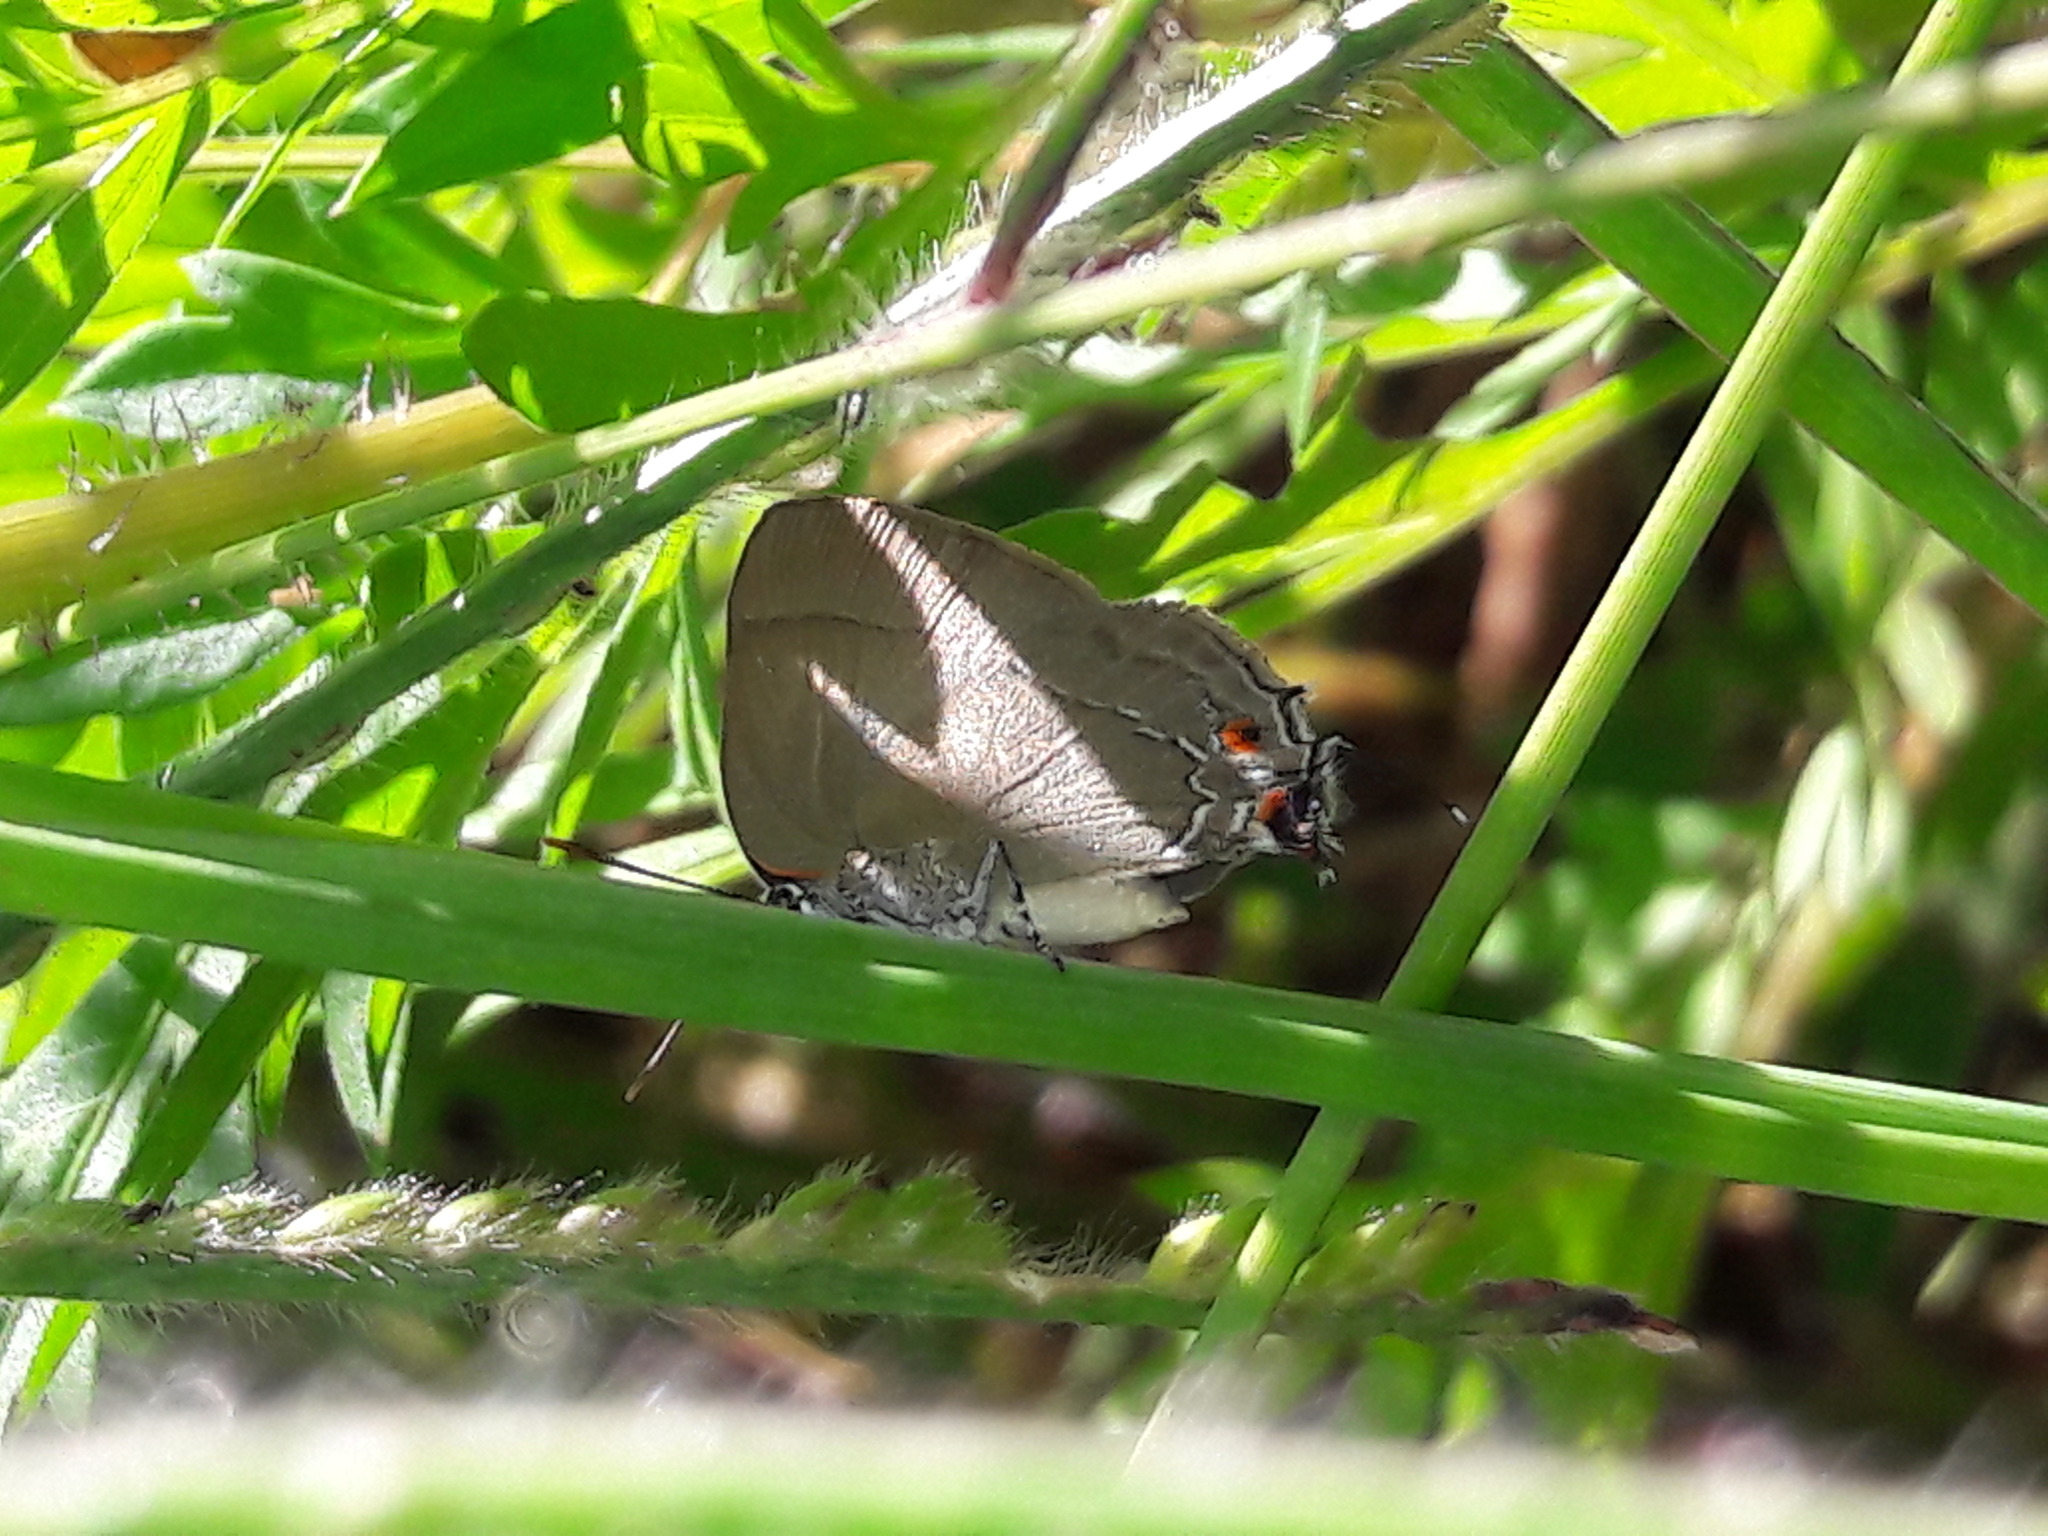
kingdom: Animalia
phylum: Arthropoda
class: Insecta
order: Lepidoptera
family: Lycaenidae
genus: Thecla
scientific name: Thecla spurina
